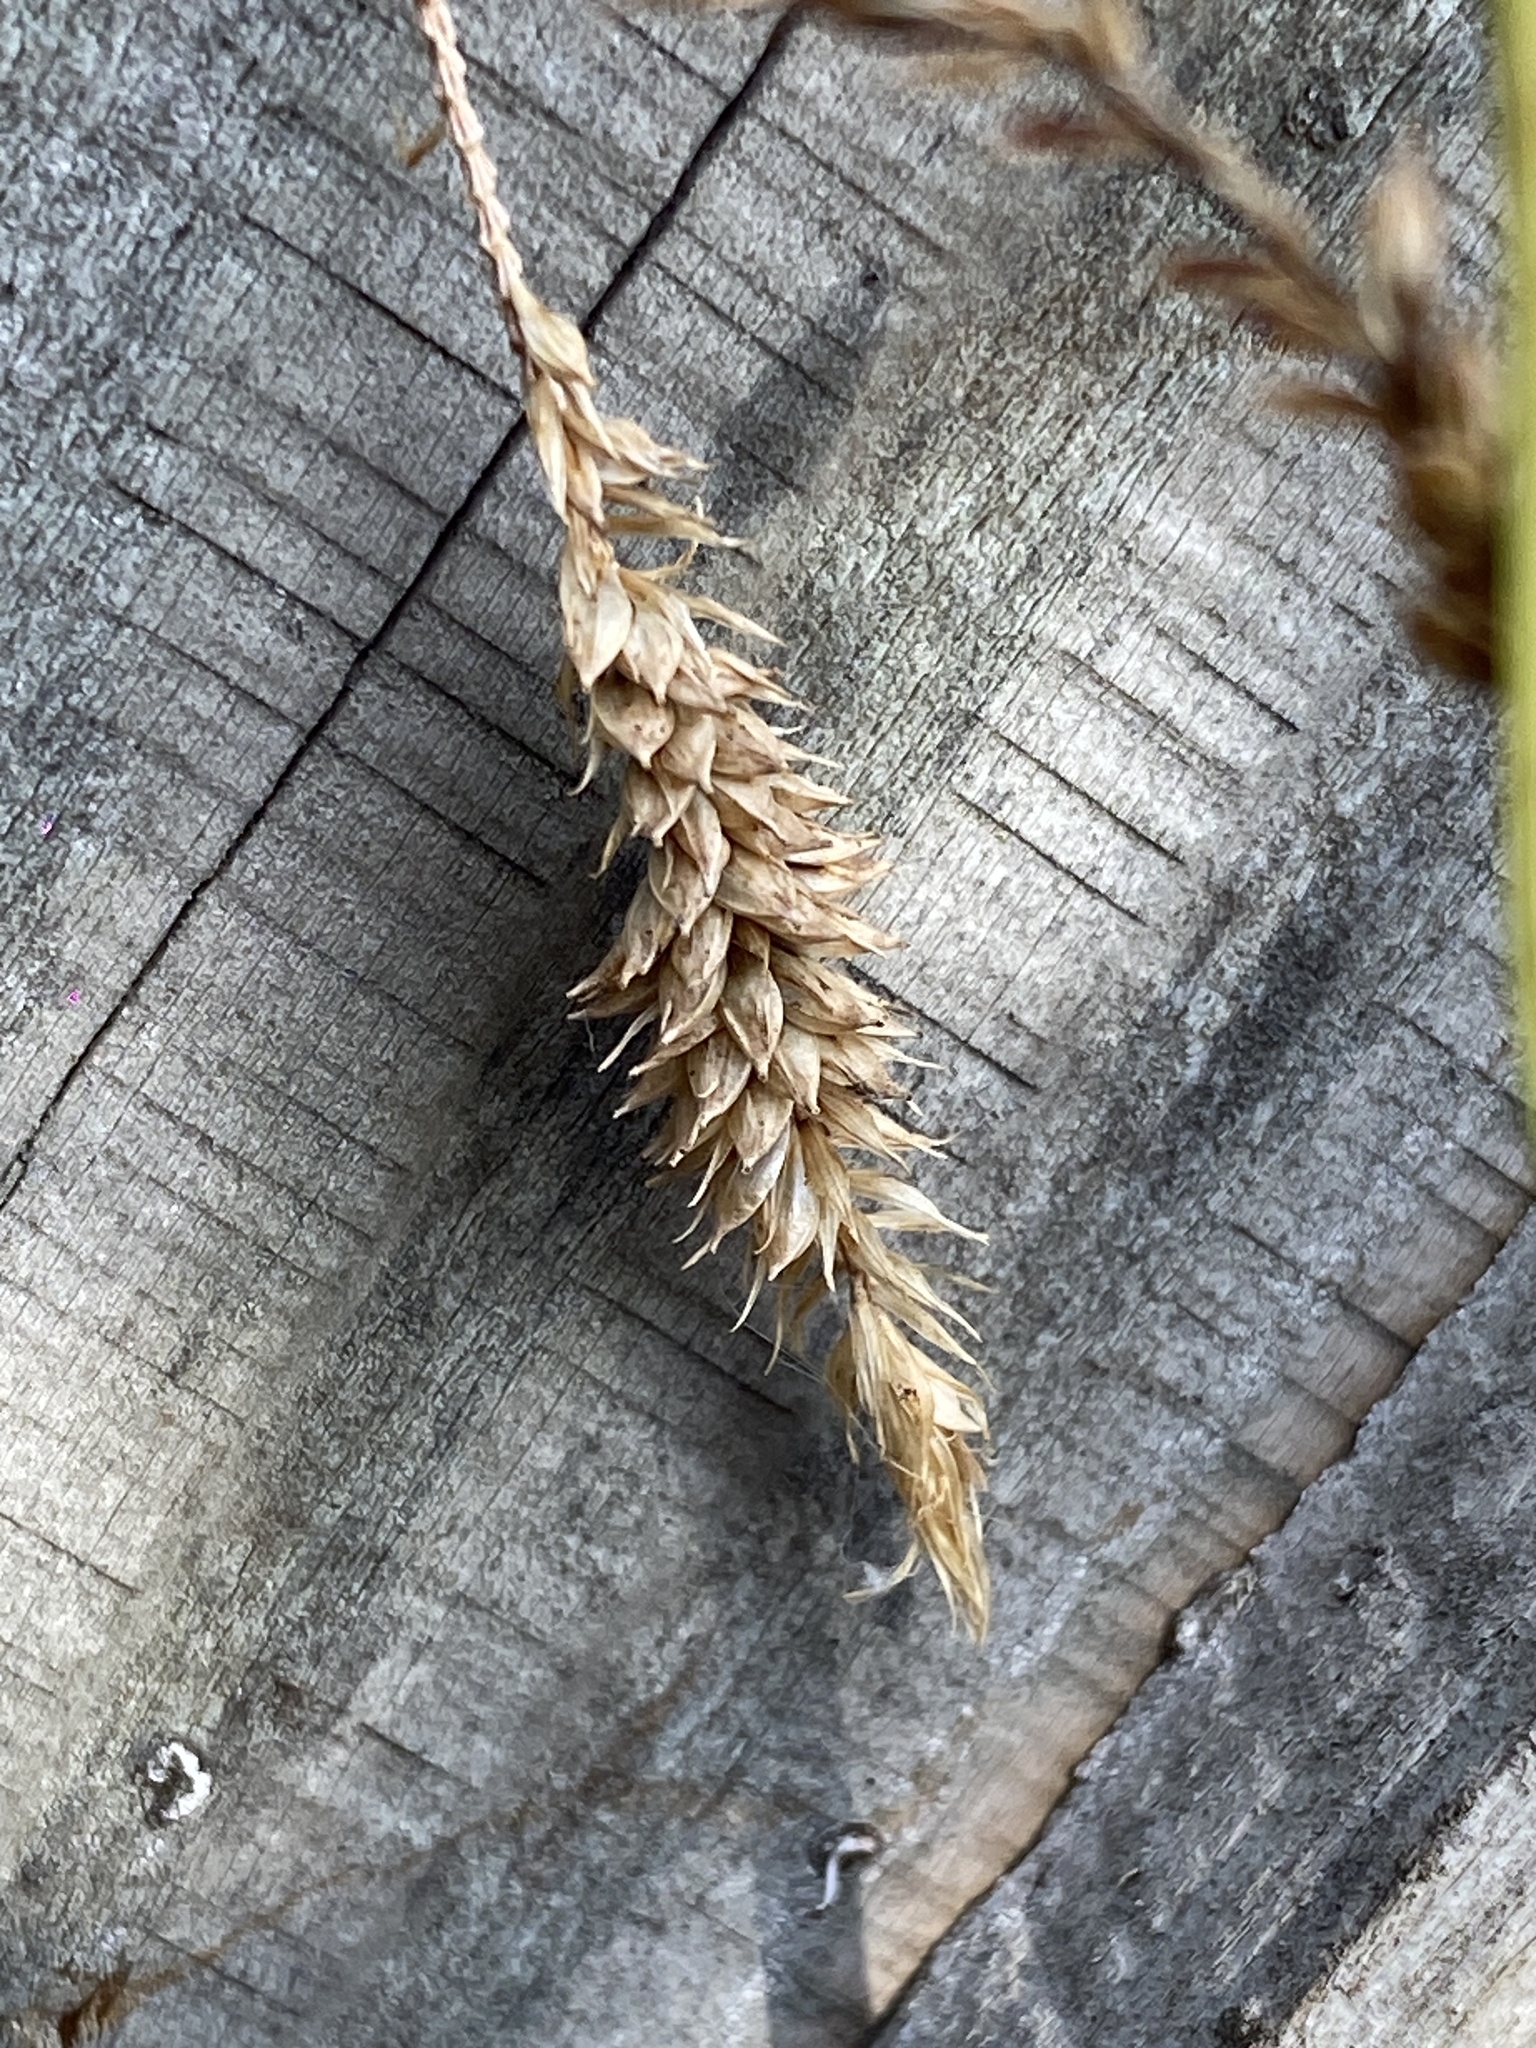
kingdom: Plantae
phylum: Tracheophyta
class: Liliopsida
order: Poales
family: Cyperaceae
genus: Carex
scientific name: Carex pendula
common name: Pendulous sedge
